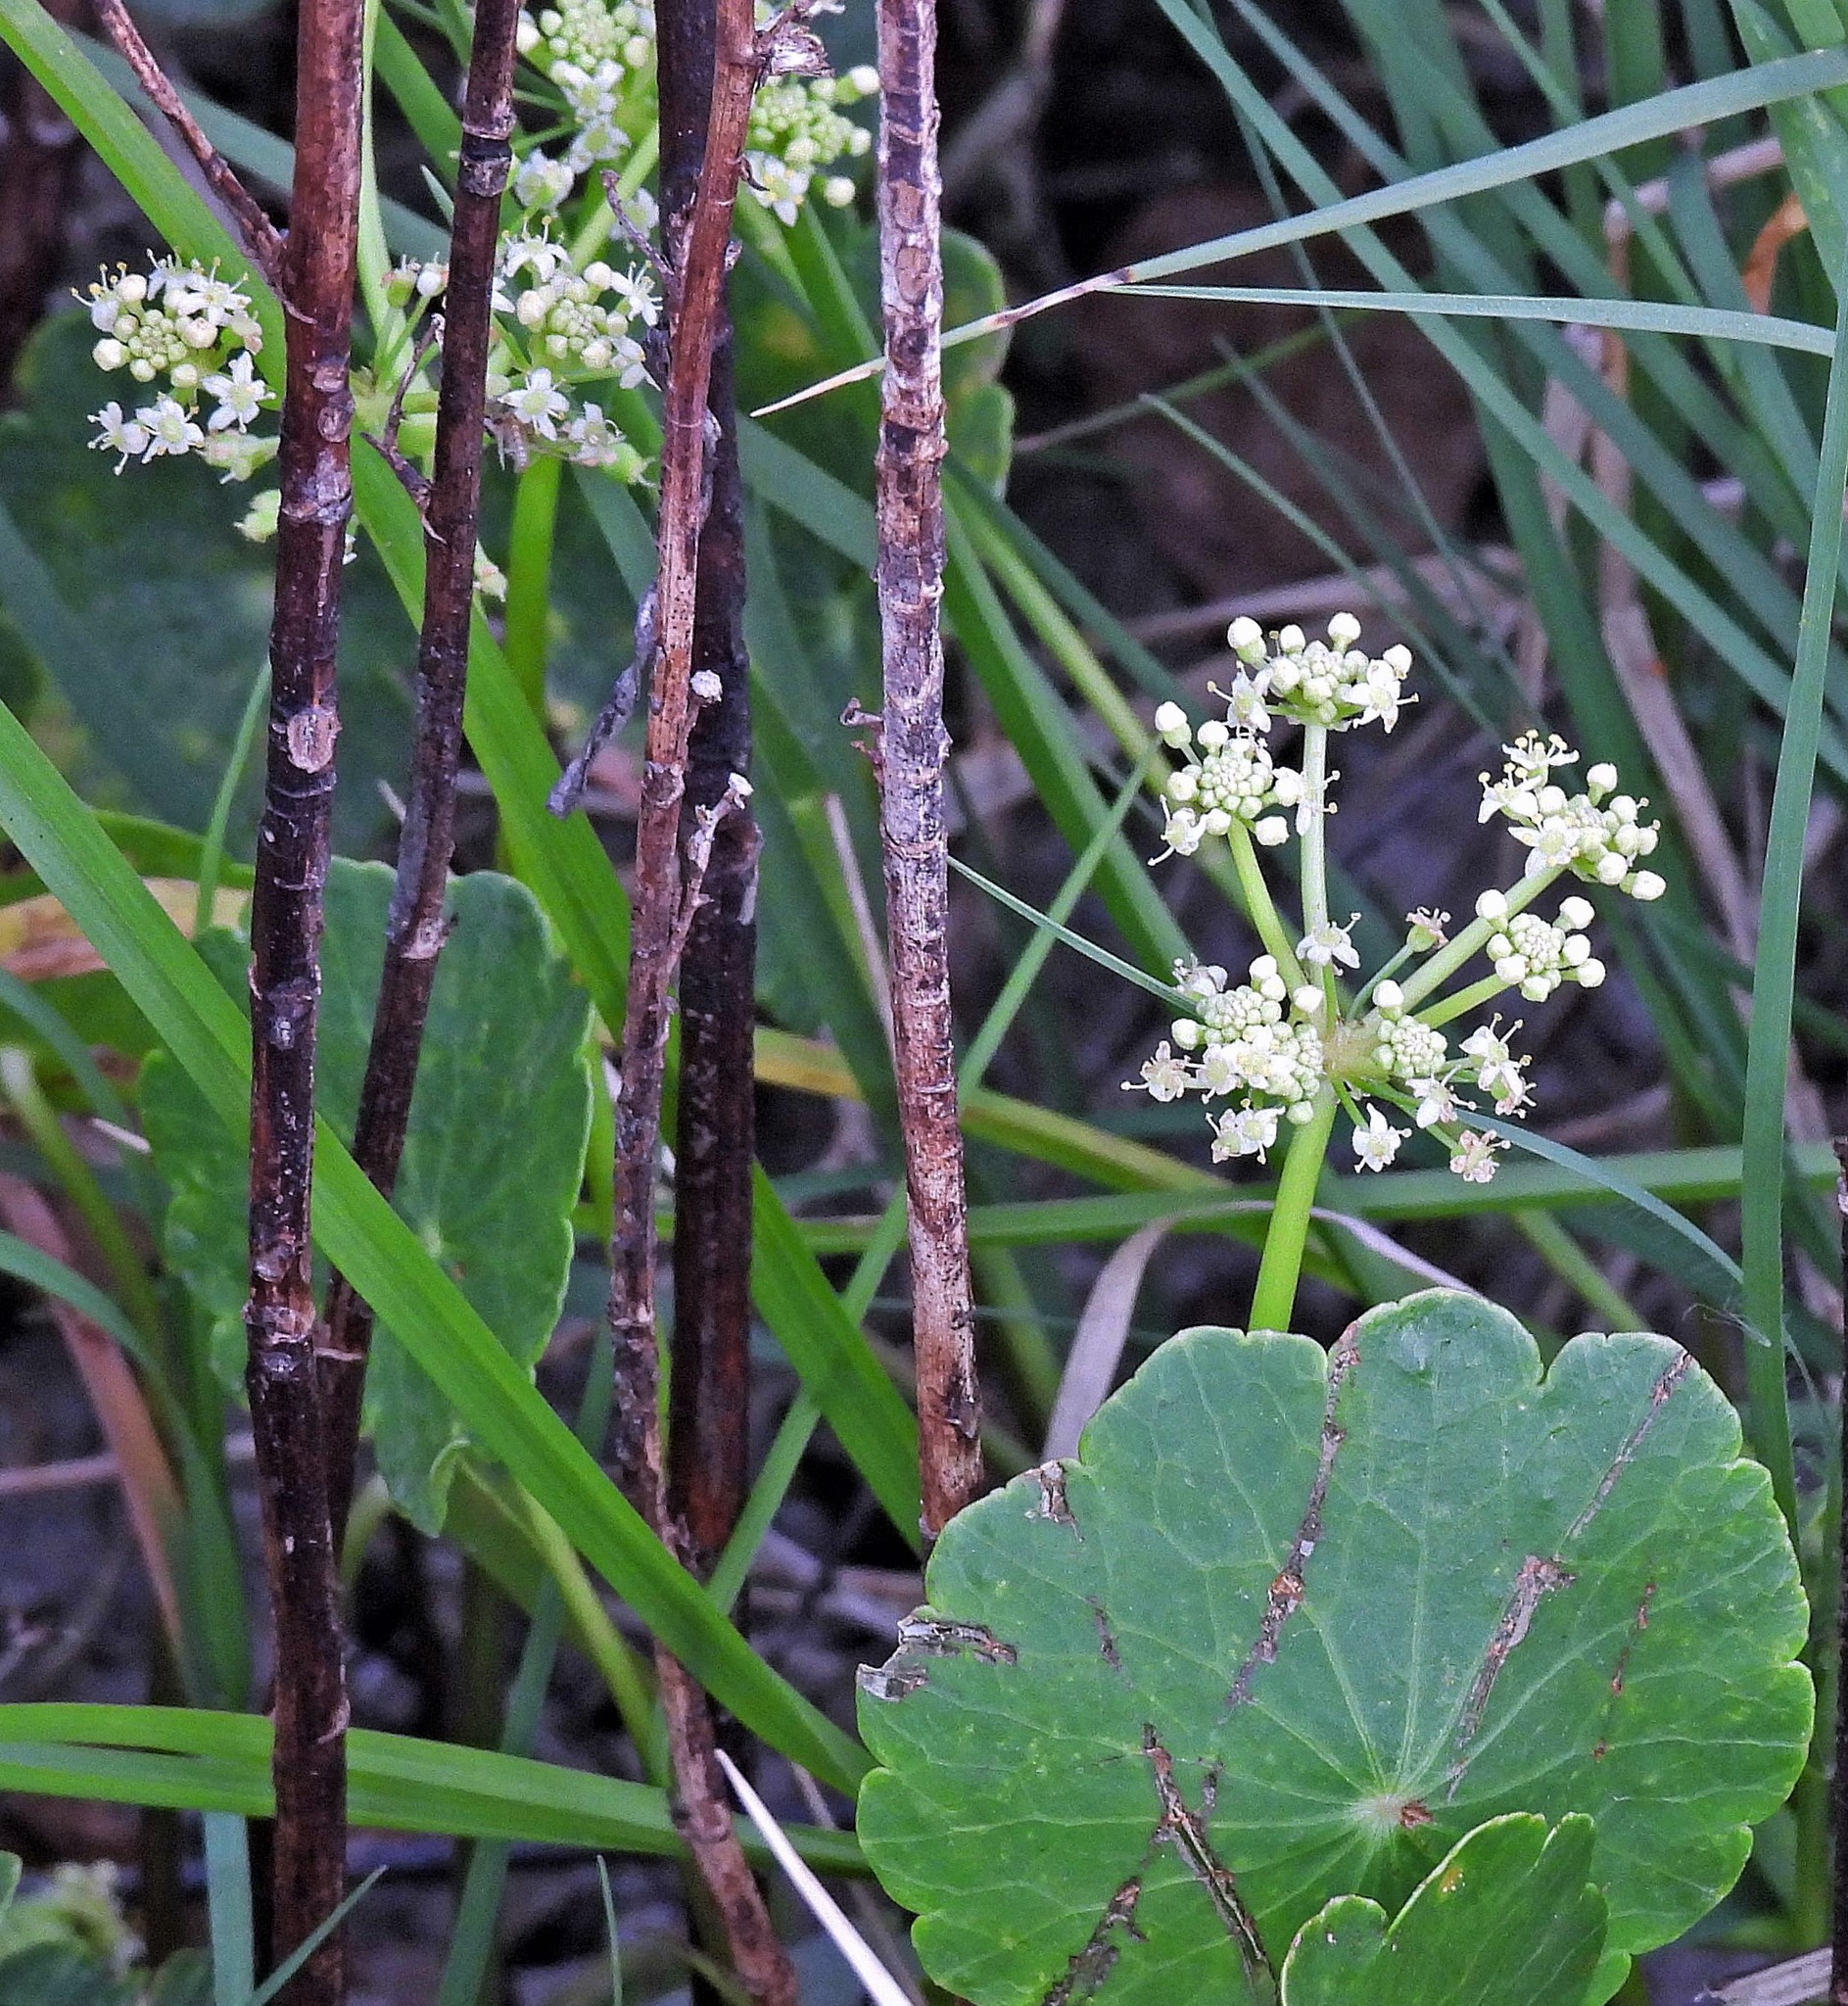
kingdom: Plantae
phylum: Tracheophyta
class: Magnoliopsida
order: Apiales
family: Araliaceae
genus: Hydrocotyle
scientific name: Hydrocotyle bonariensis
